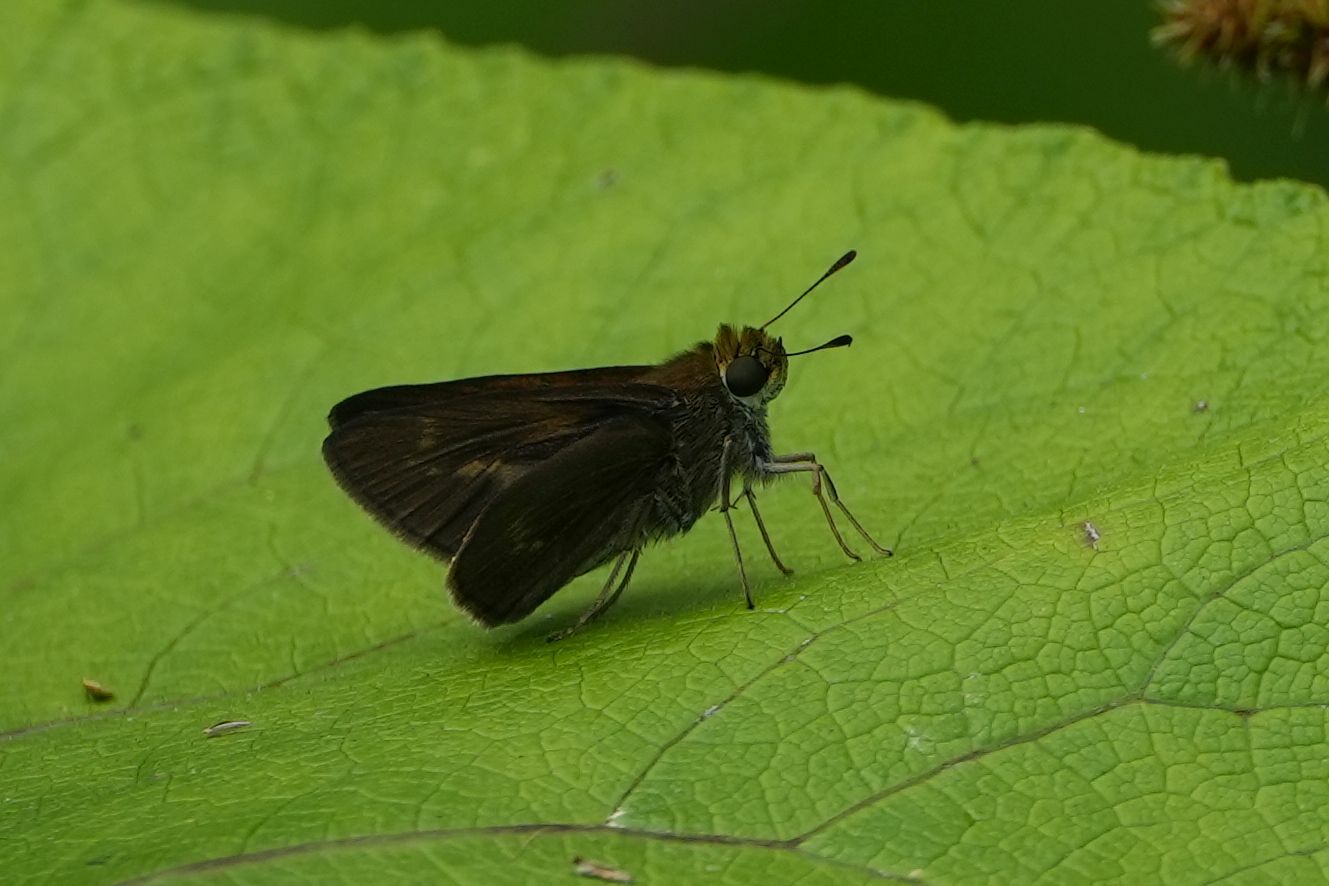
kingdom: Animalia
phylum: Arthropoda
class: Insecta
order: Lepidoptera
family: Hesperiidae
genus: Euphyes
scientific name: Euphyes vestris
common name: Dun skipper
